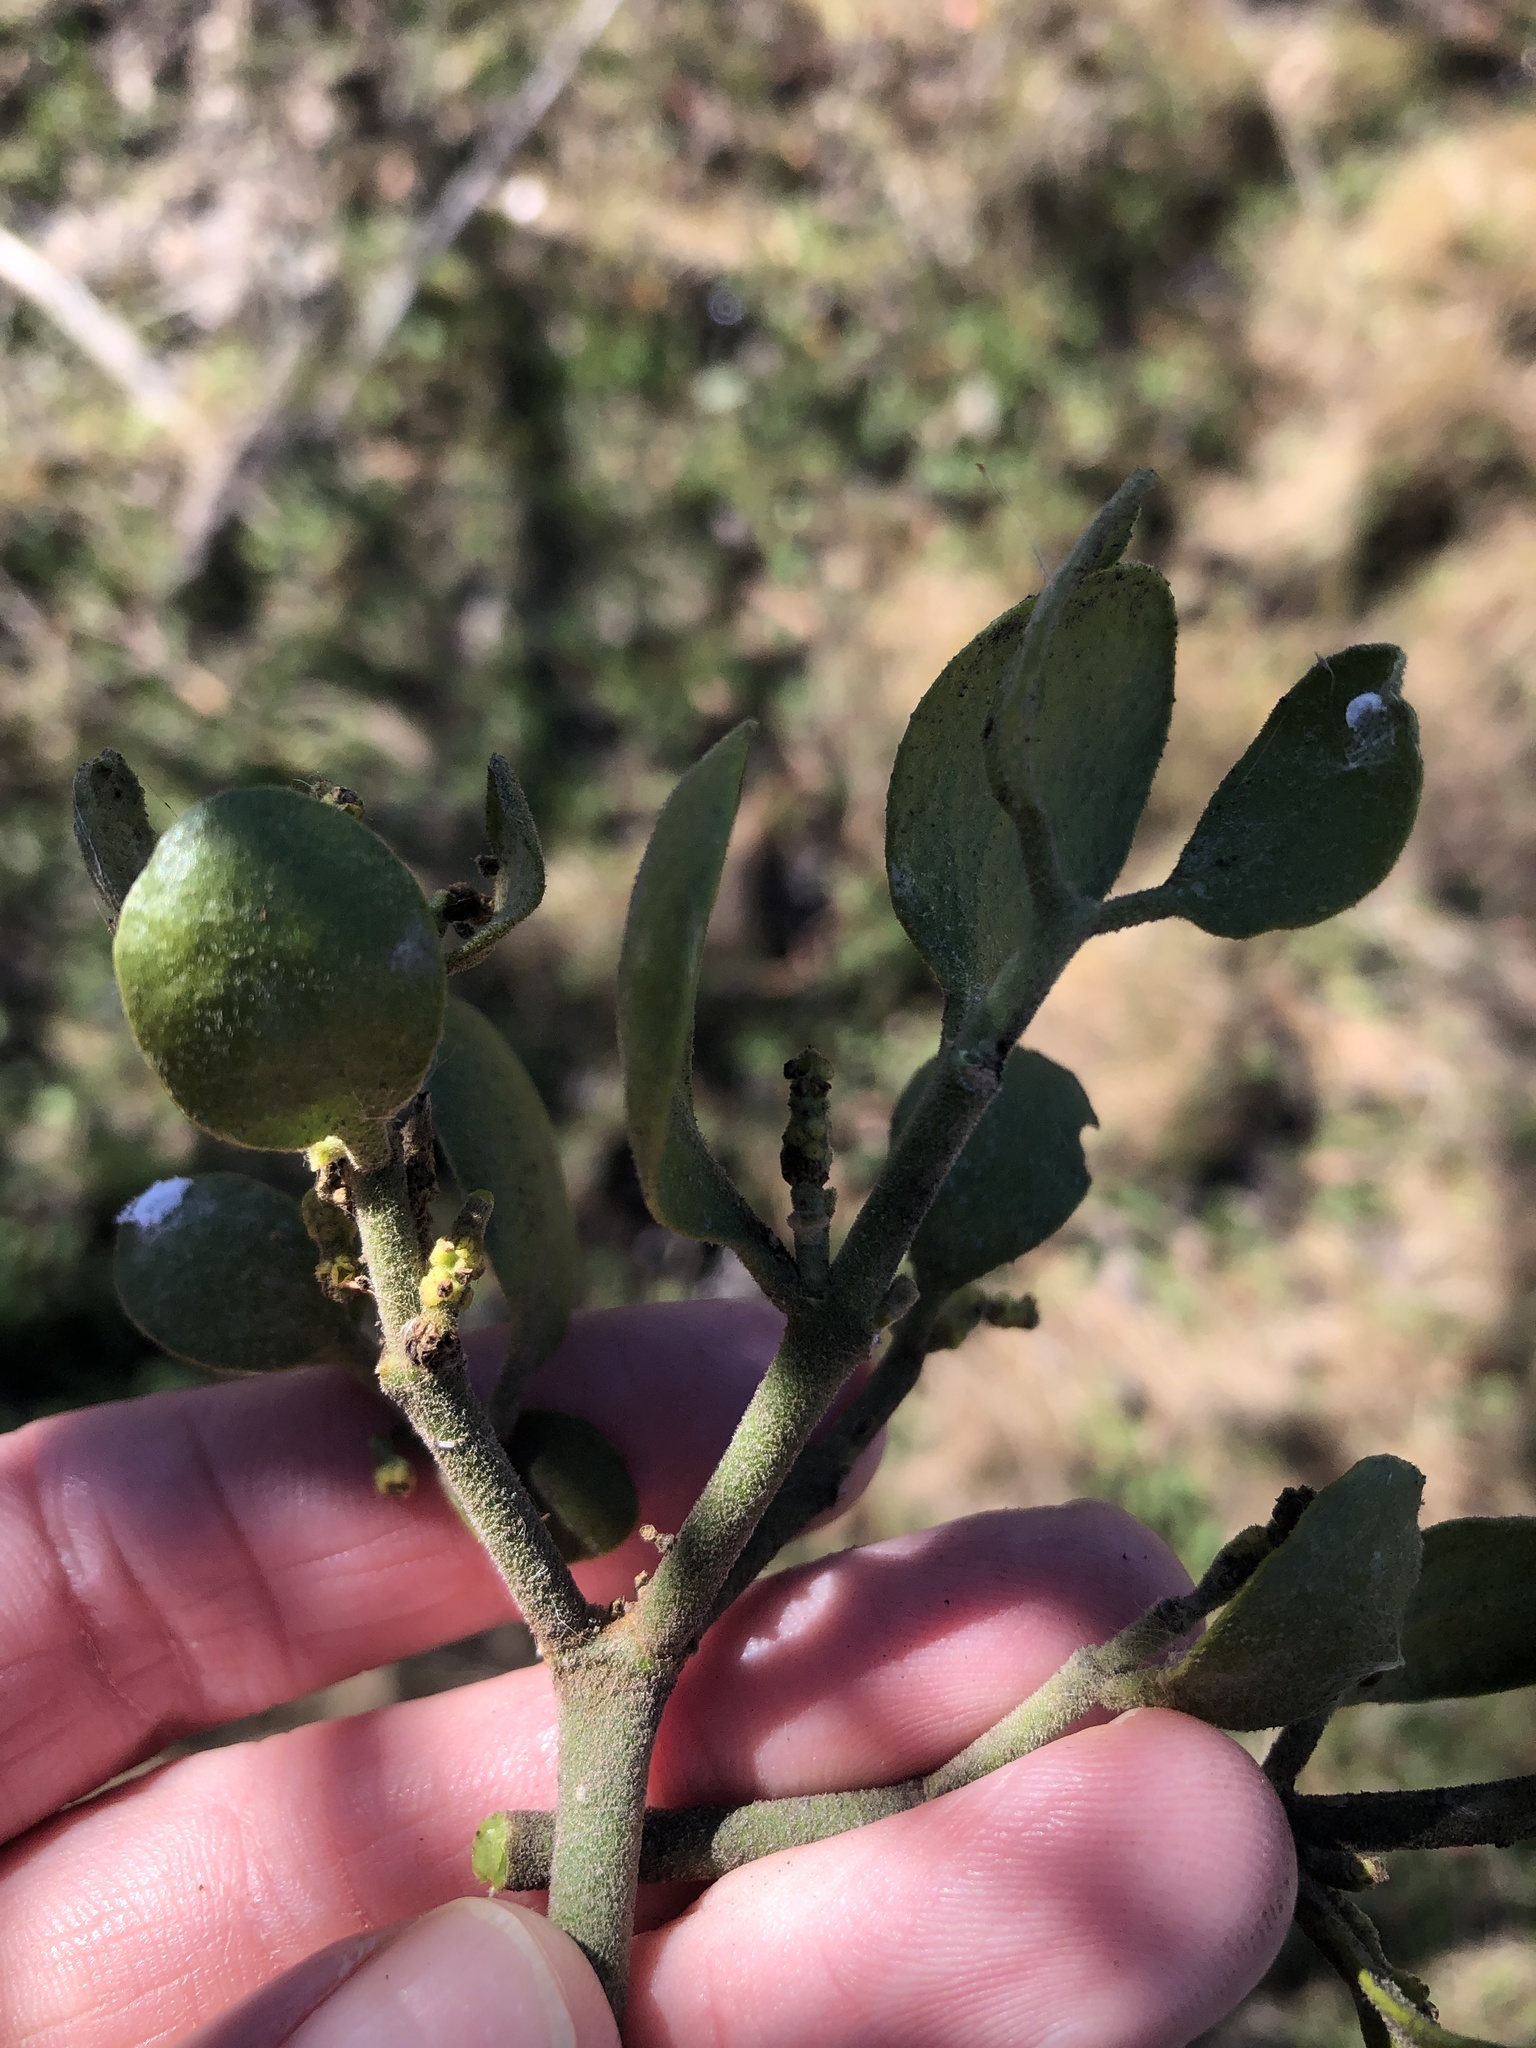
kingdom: Plantae
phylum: Tracheophyta
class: Magnoliopsida
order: Santalales
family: Viscaceae
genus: Phoradendron
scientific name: Phoradendron leucarpum
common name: Pacific mistletoe
